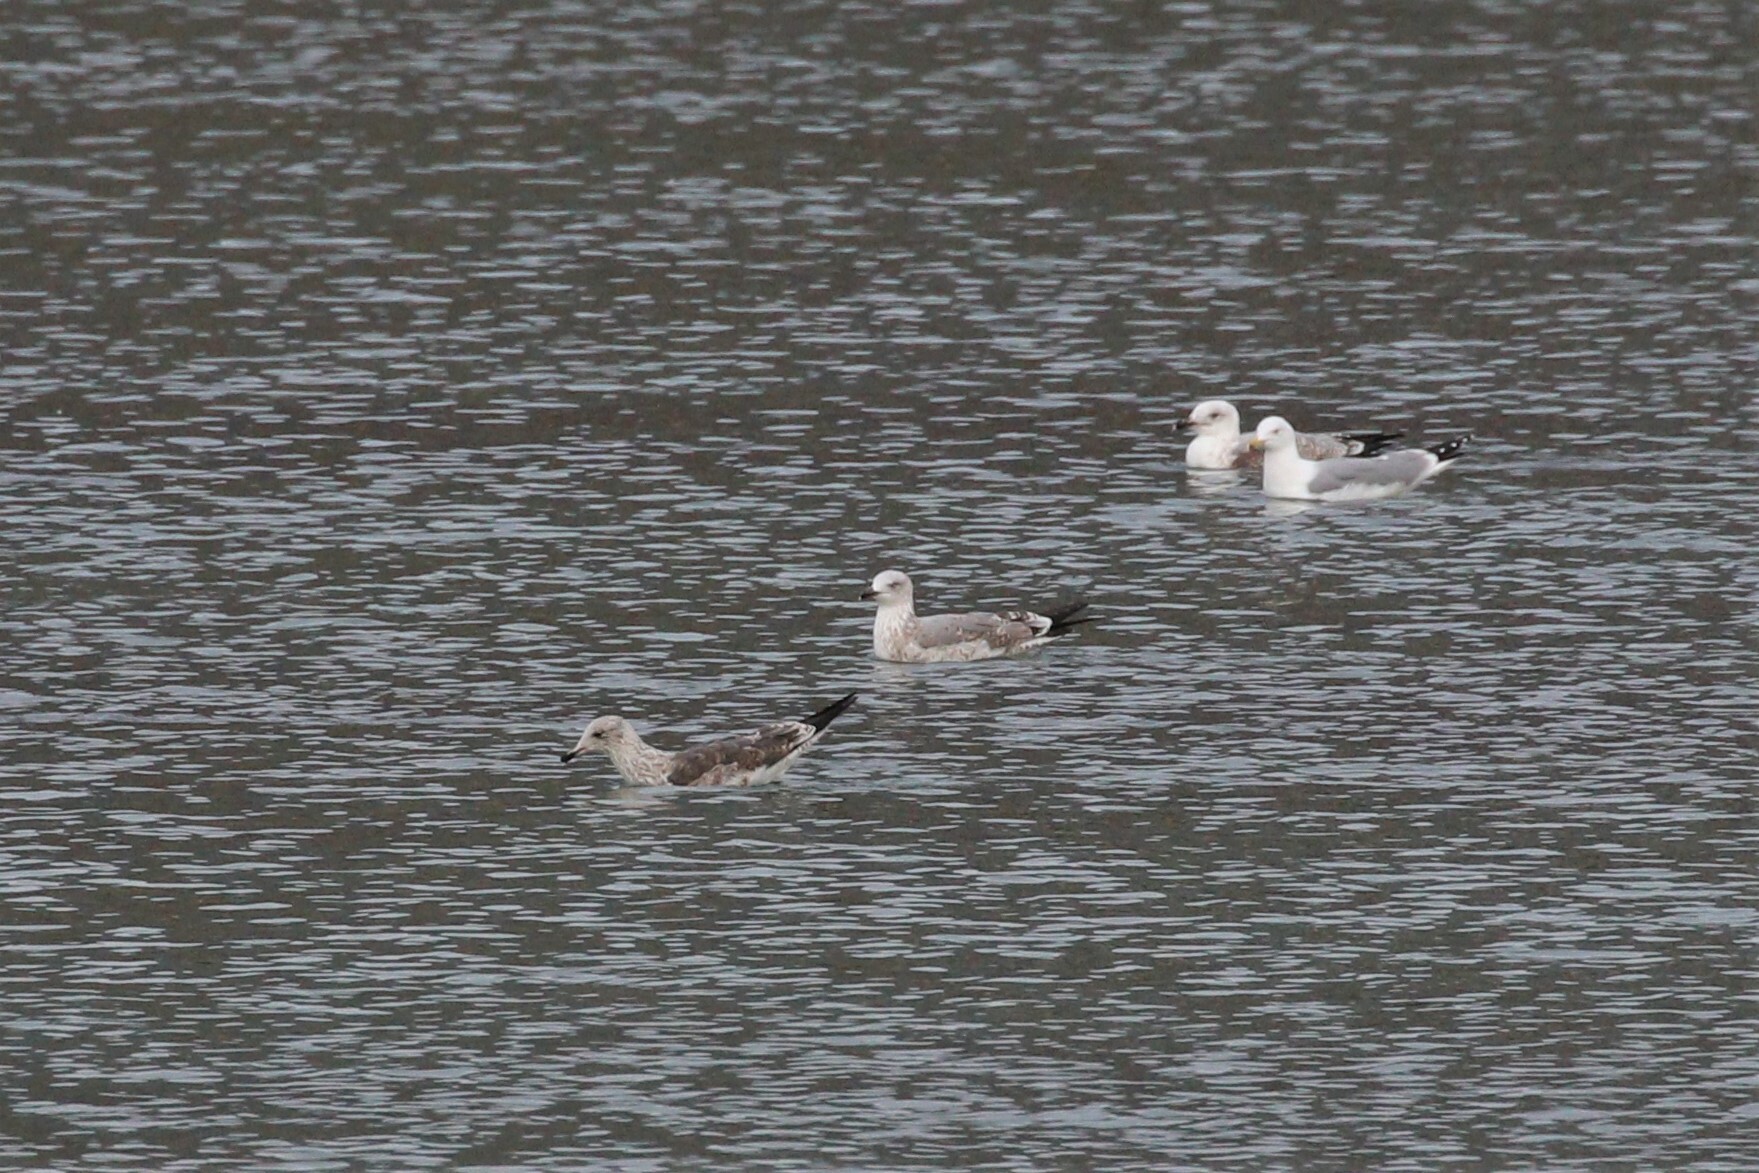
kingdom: Animalia
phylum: Chordata
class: Aves
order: Charadriiformes
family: Laridae
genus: Larus
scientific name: Larus fuscus
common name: Lesser black-backed gull
